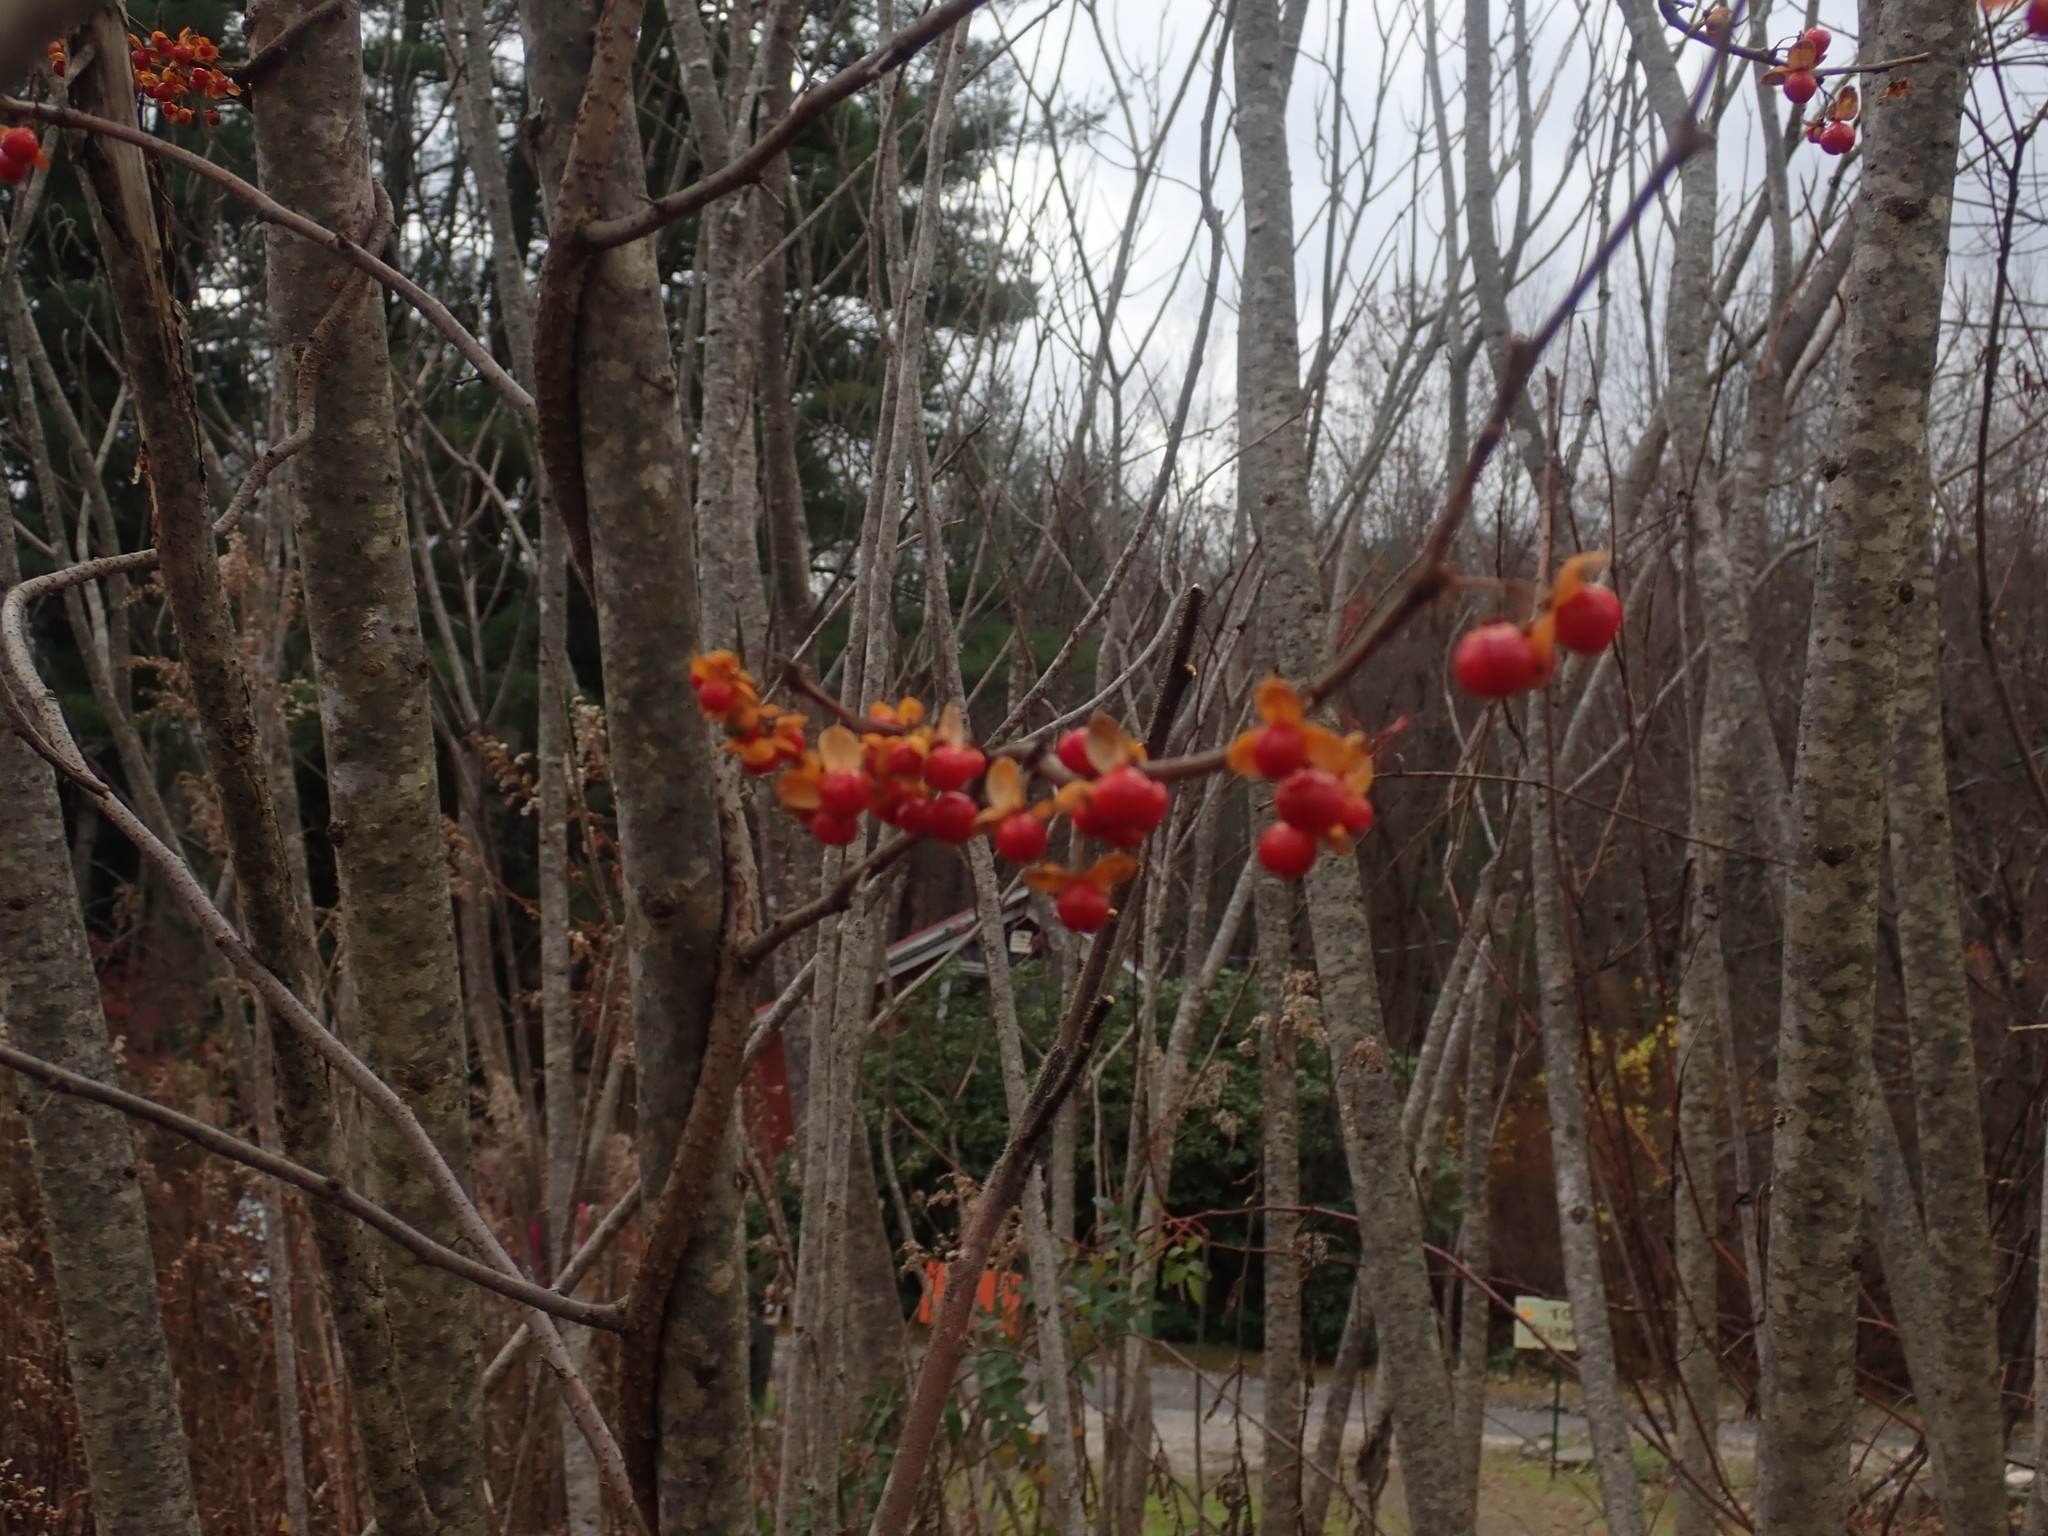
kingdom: Plantae
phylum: Tracheophyta
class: Magnoliopsida
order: Celastrales
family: Celastraceae
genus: Celastrus
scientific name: Celastrus orbiculatus
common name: Oriental bittersweet
